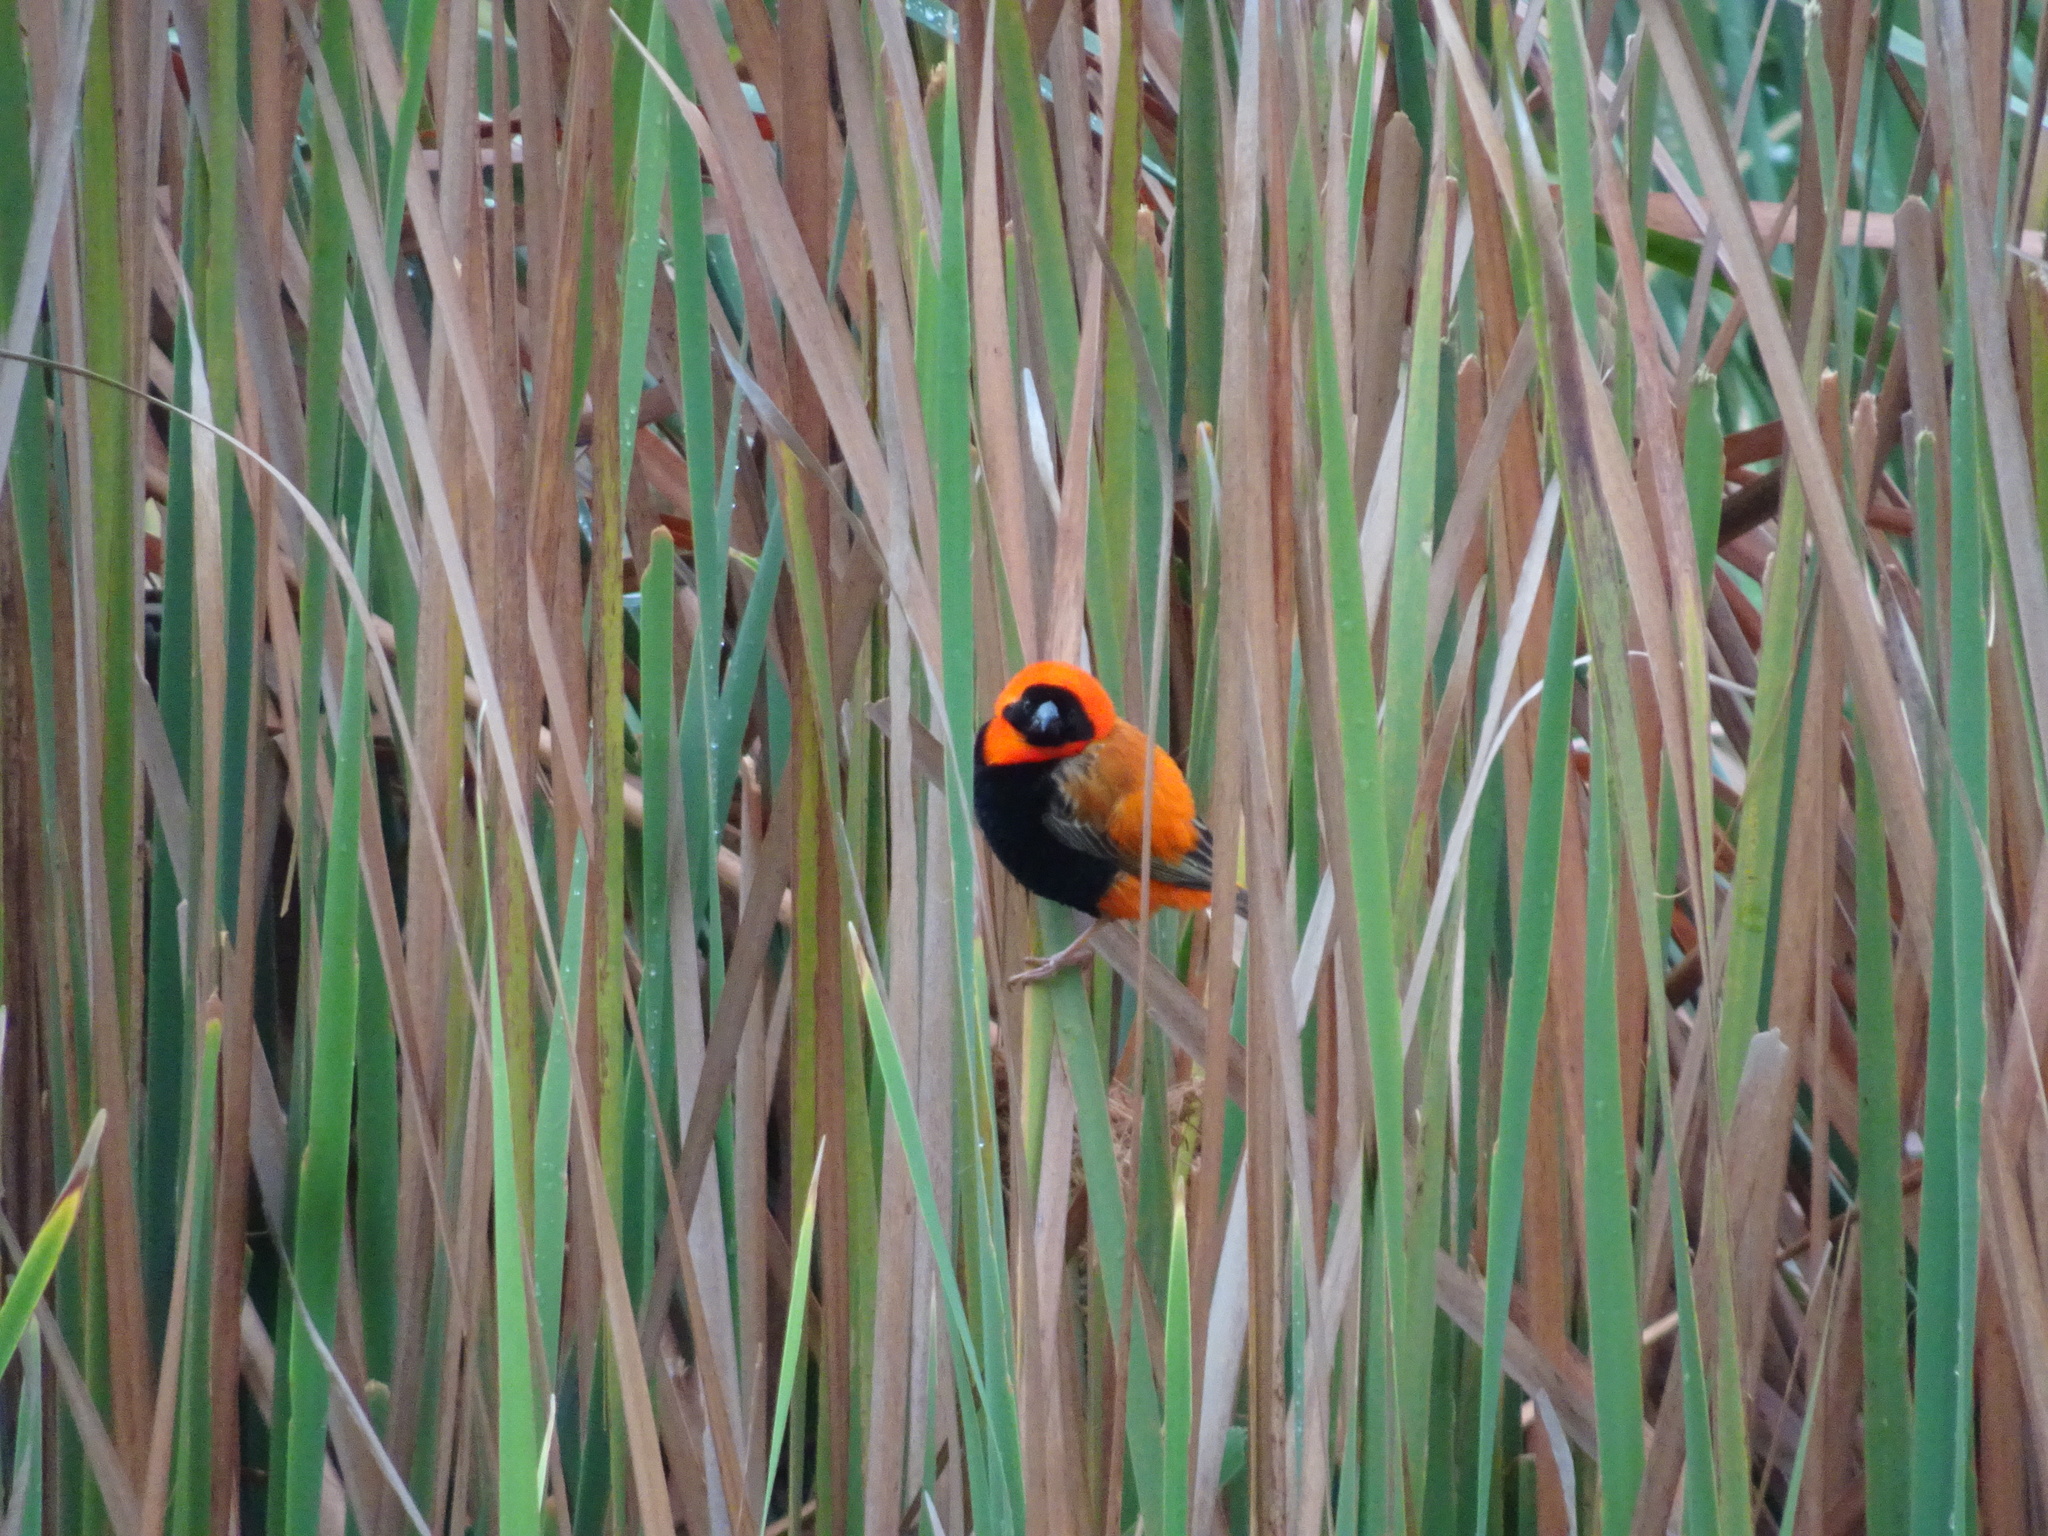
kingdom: Animalia
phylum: Chordata
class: Aves
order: Passeriformes
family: Ploceidae
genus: Euplectes
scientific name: Euplectes orix
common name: Southern red bishop
